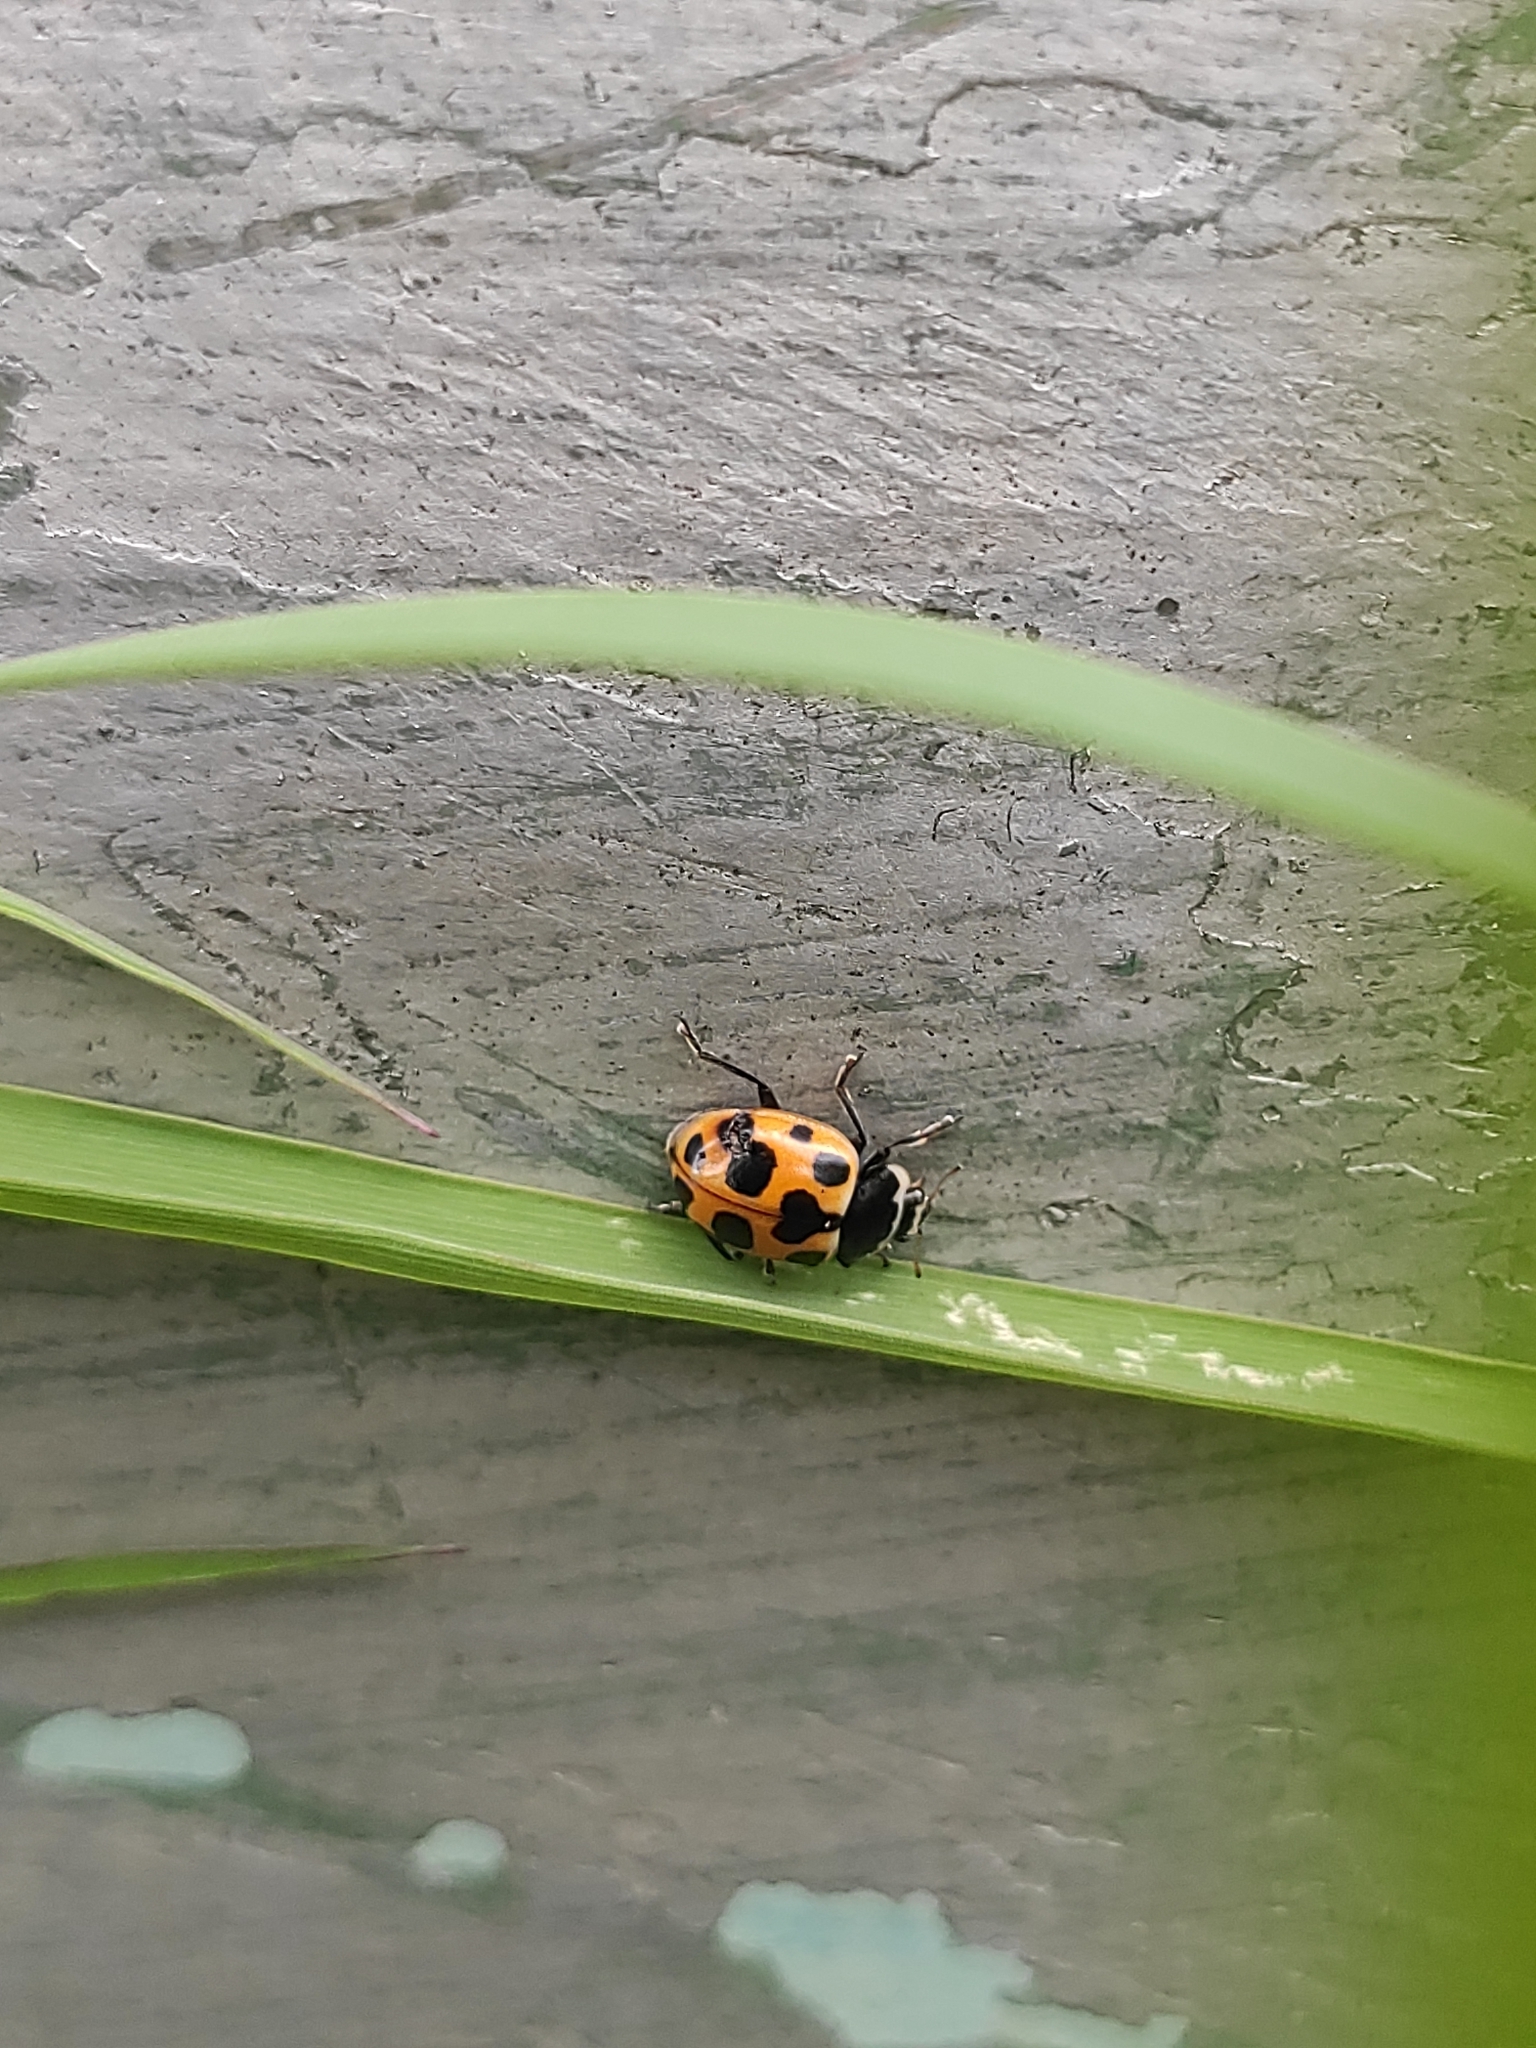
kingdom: Animalia
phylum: Arthropoda
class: Insecta
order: Coleoptera
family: Coccinellidae
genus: Ceratomegilla
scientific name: Ceratomegilla notata
